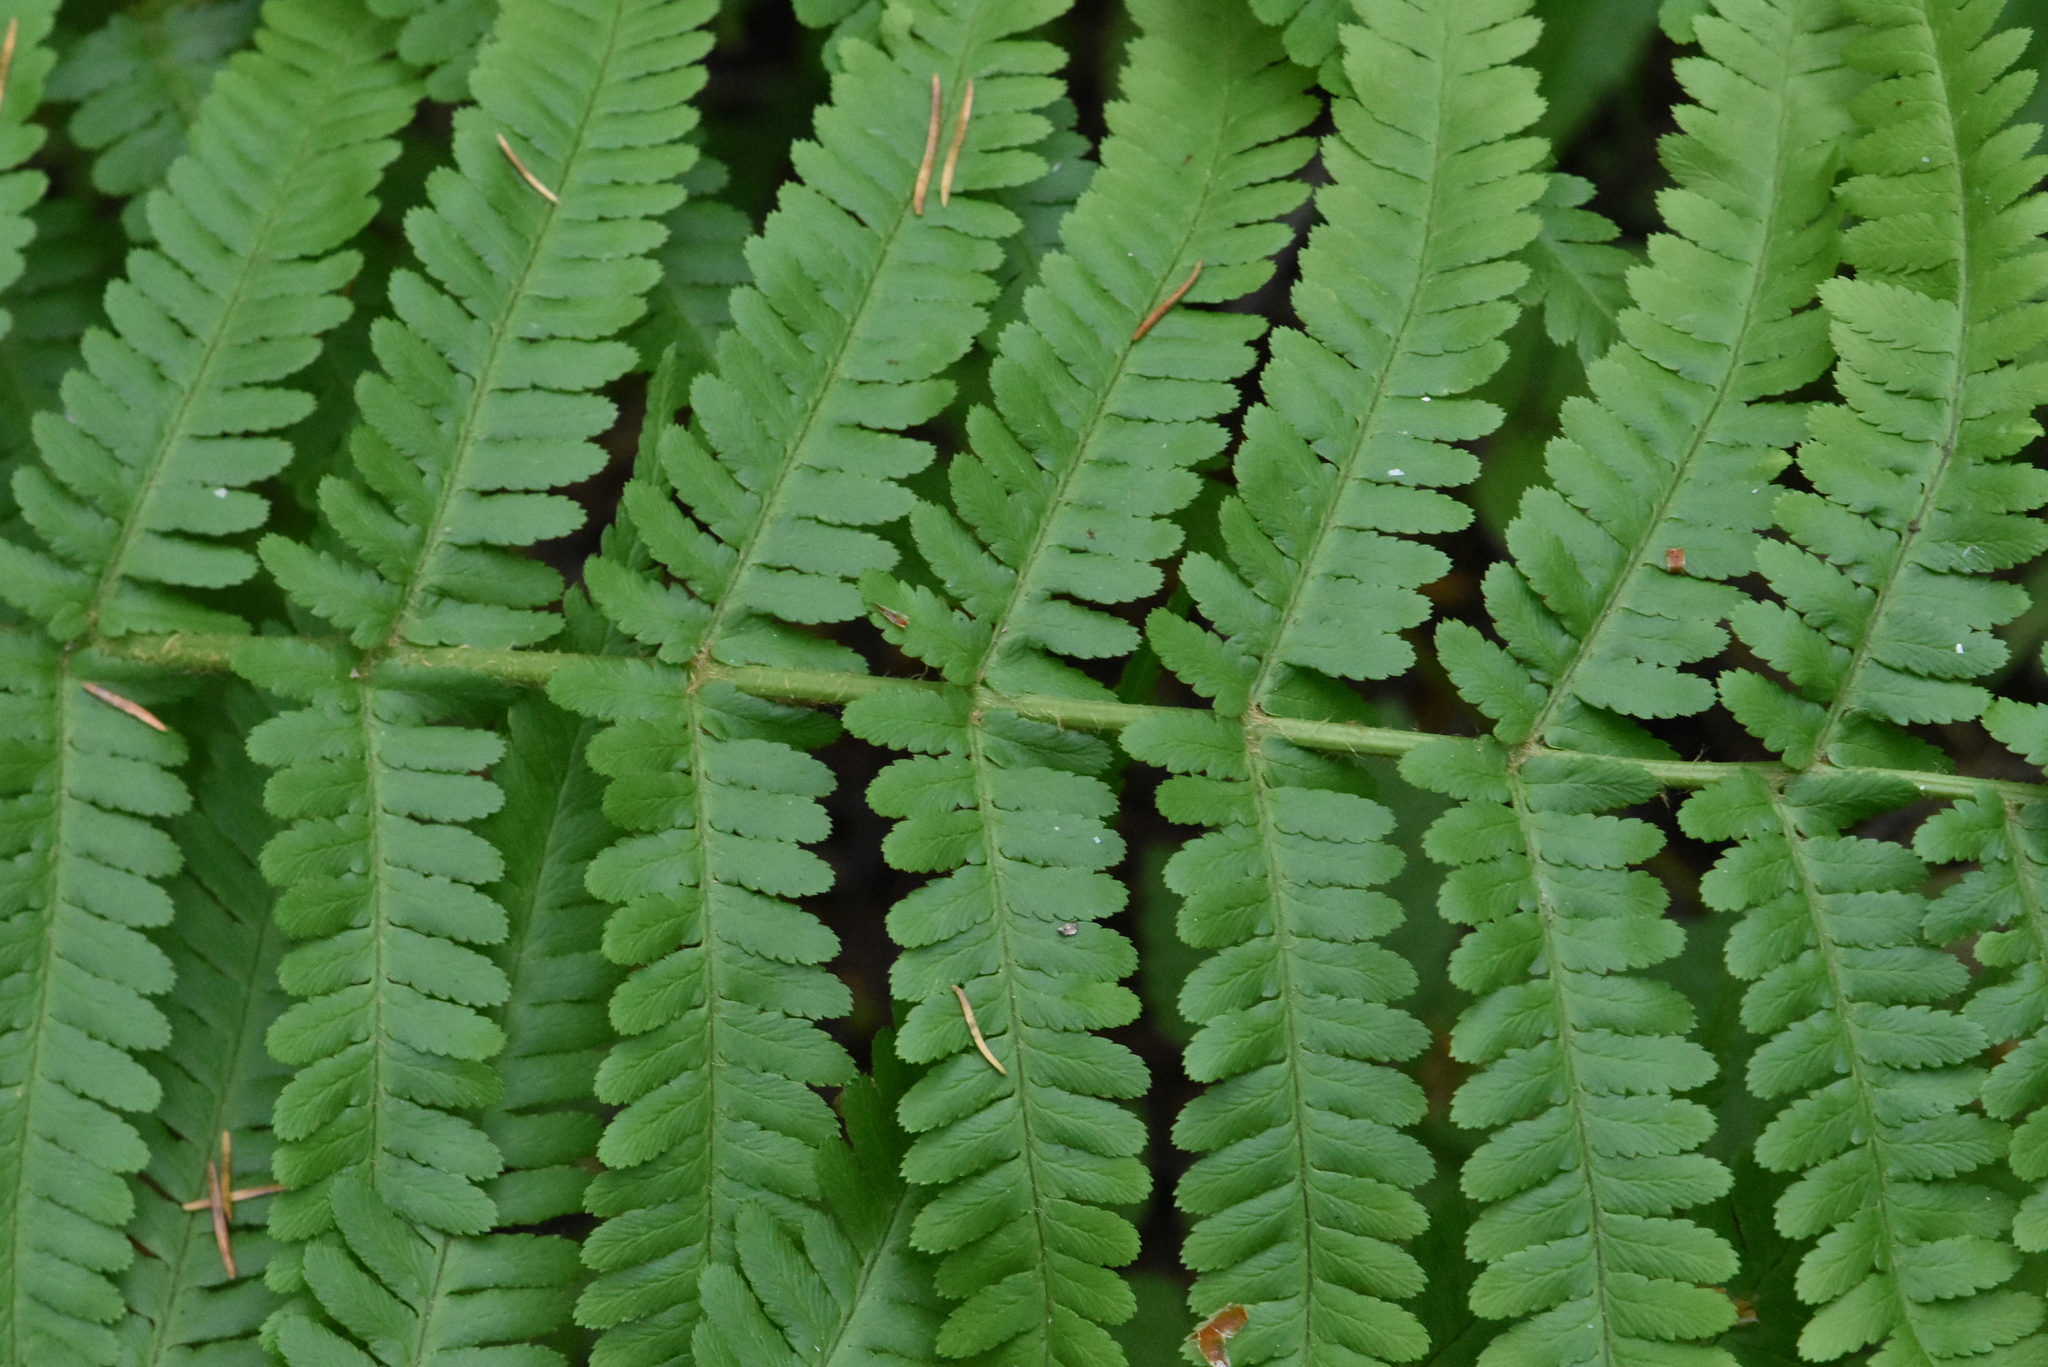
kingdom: Plantae
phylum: Tracheophyta
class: Polypodiopsida
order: Polypodiales
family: Dryopteridaceae
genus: Dryopteris
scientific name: Dryopteris filix-mas
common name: Male fern
